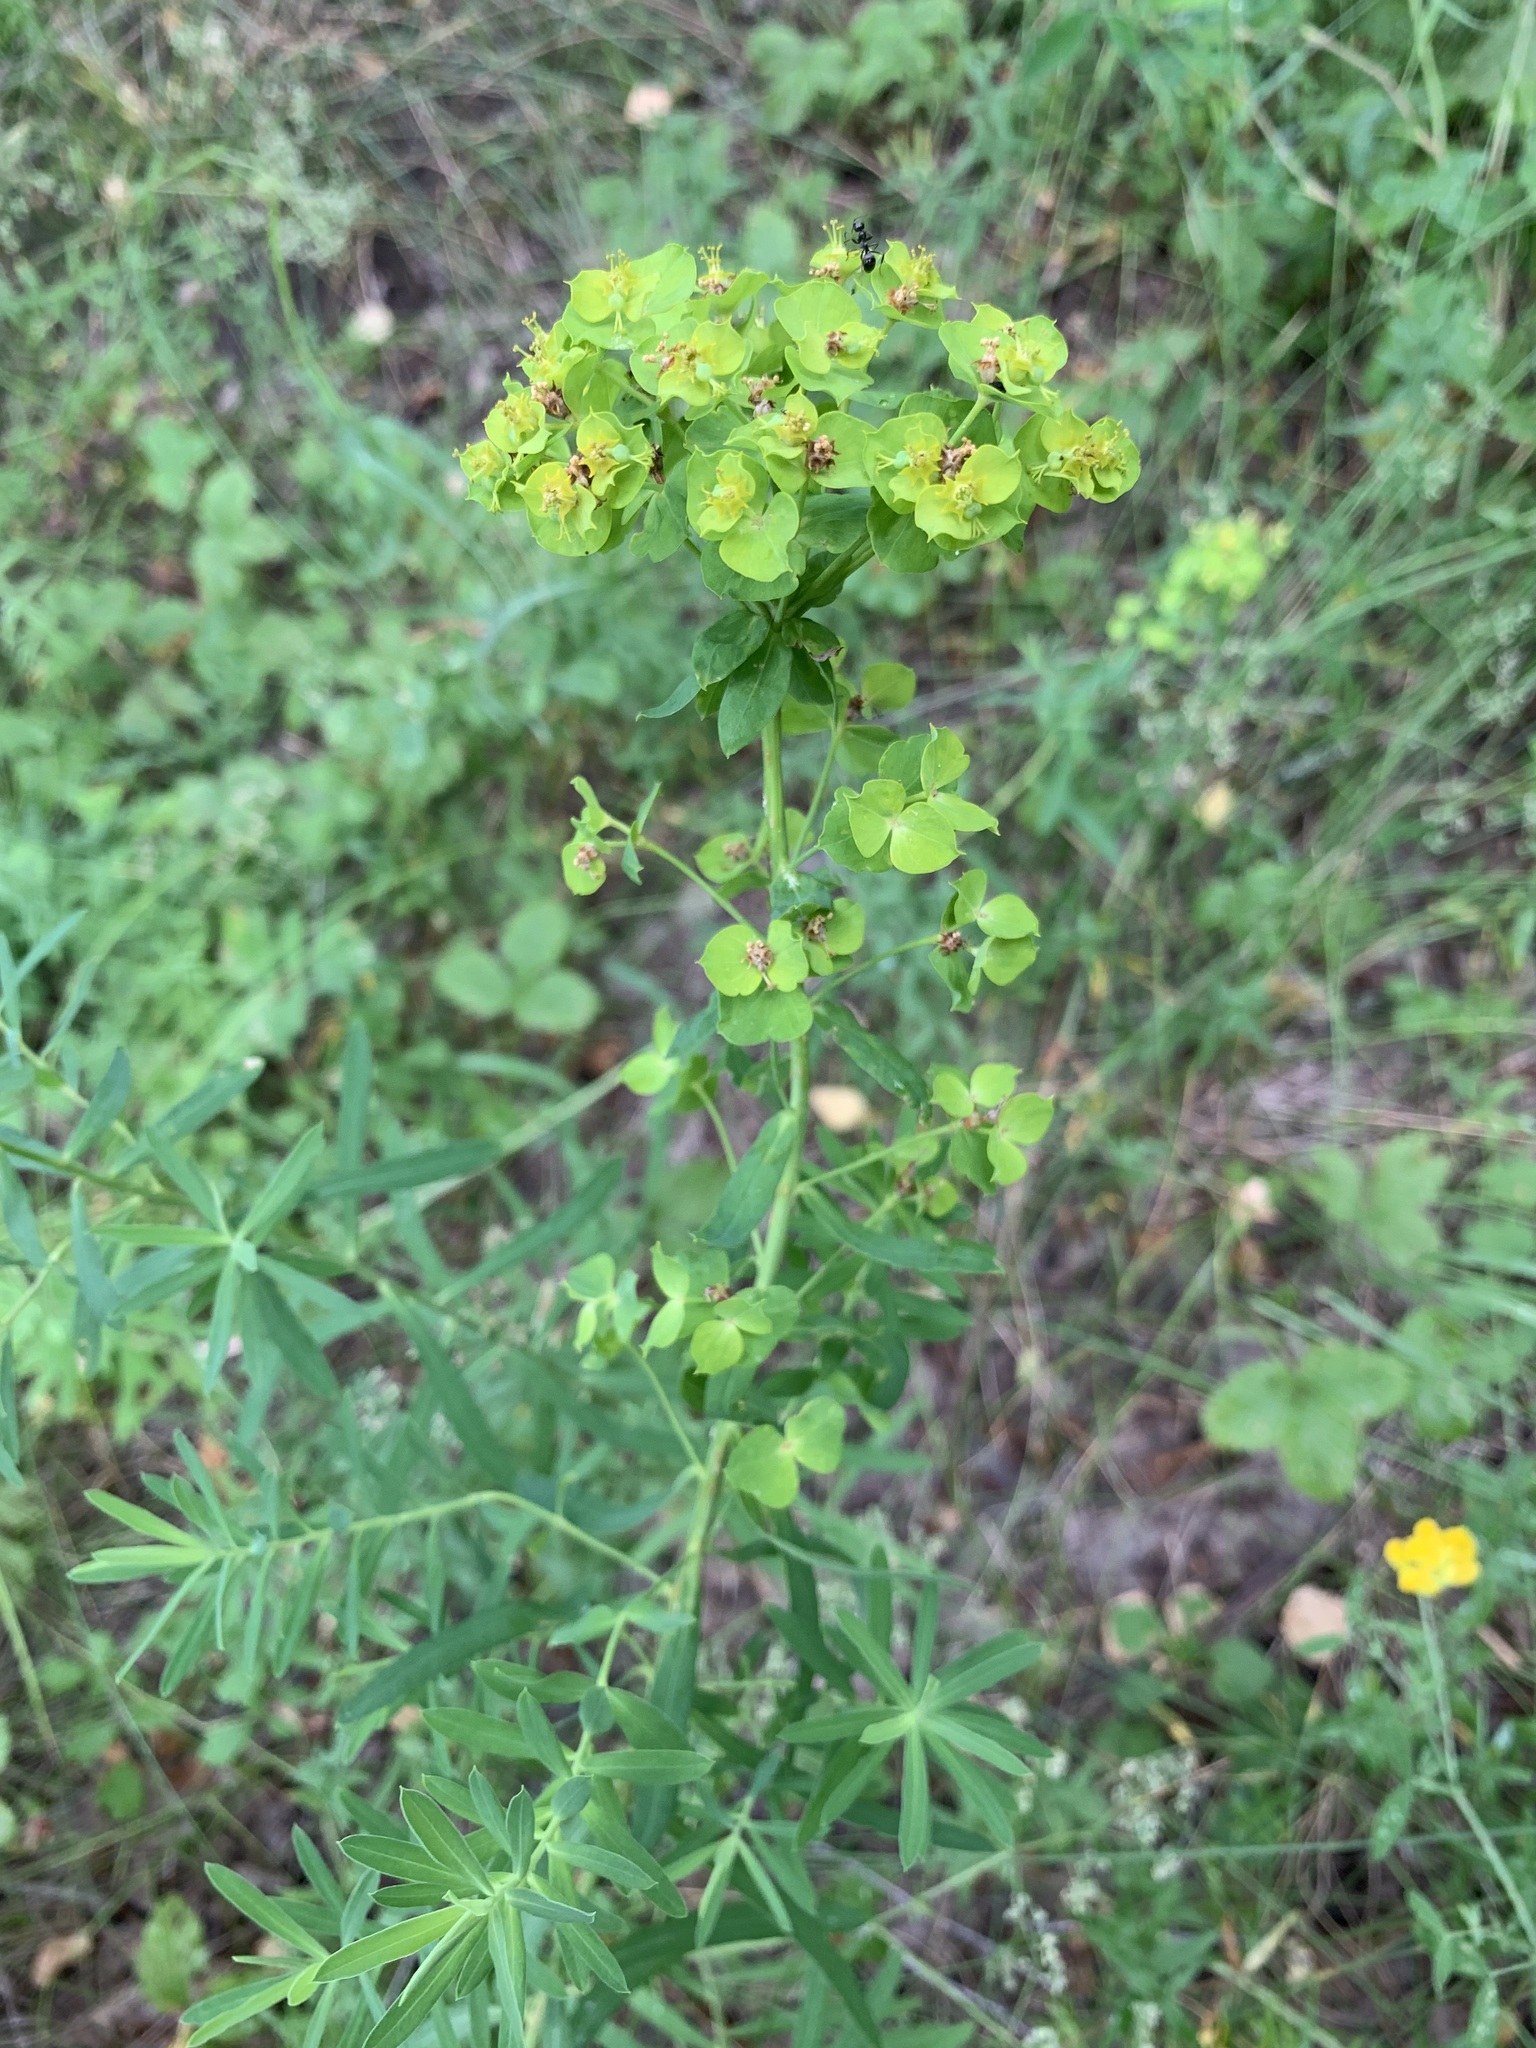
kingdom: Plantae
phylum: Tracheophyta
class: Magnoliopsida
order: Malpighiales
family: Euphorbiaceae
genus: Euphorbia
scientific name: Euphorbia virgata
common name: Leafy spurge
